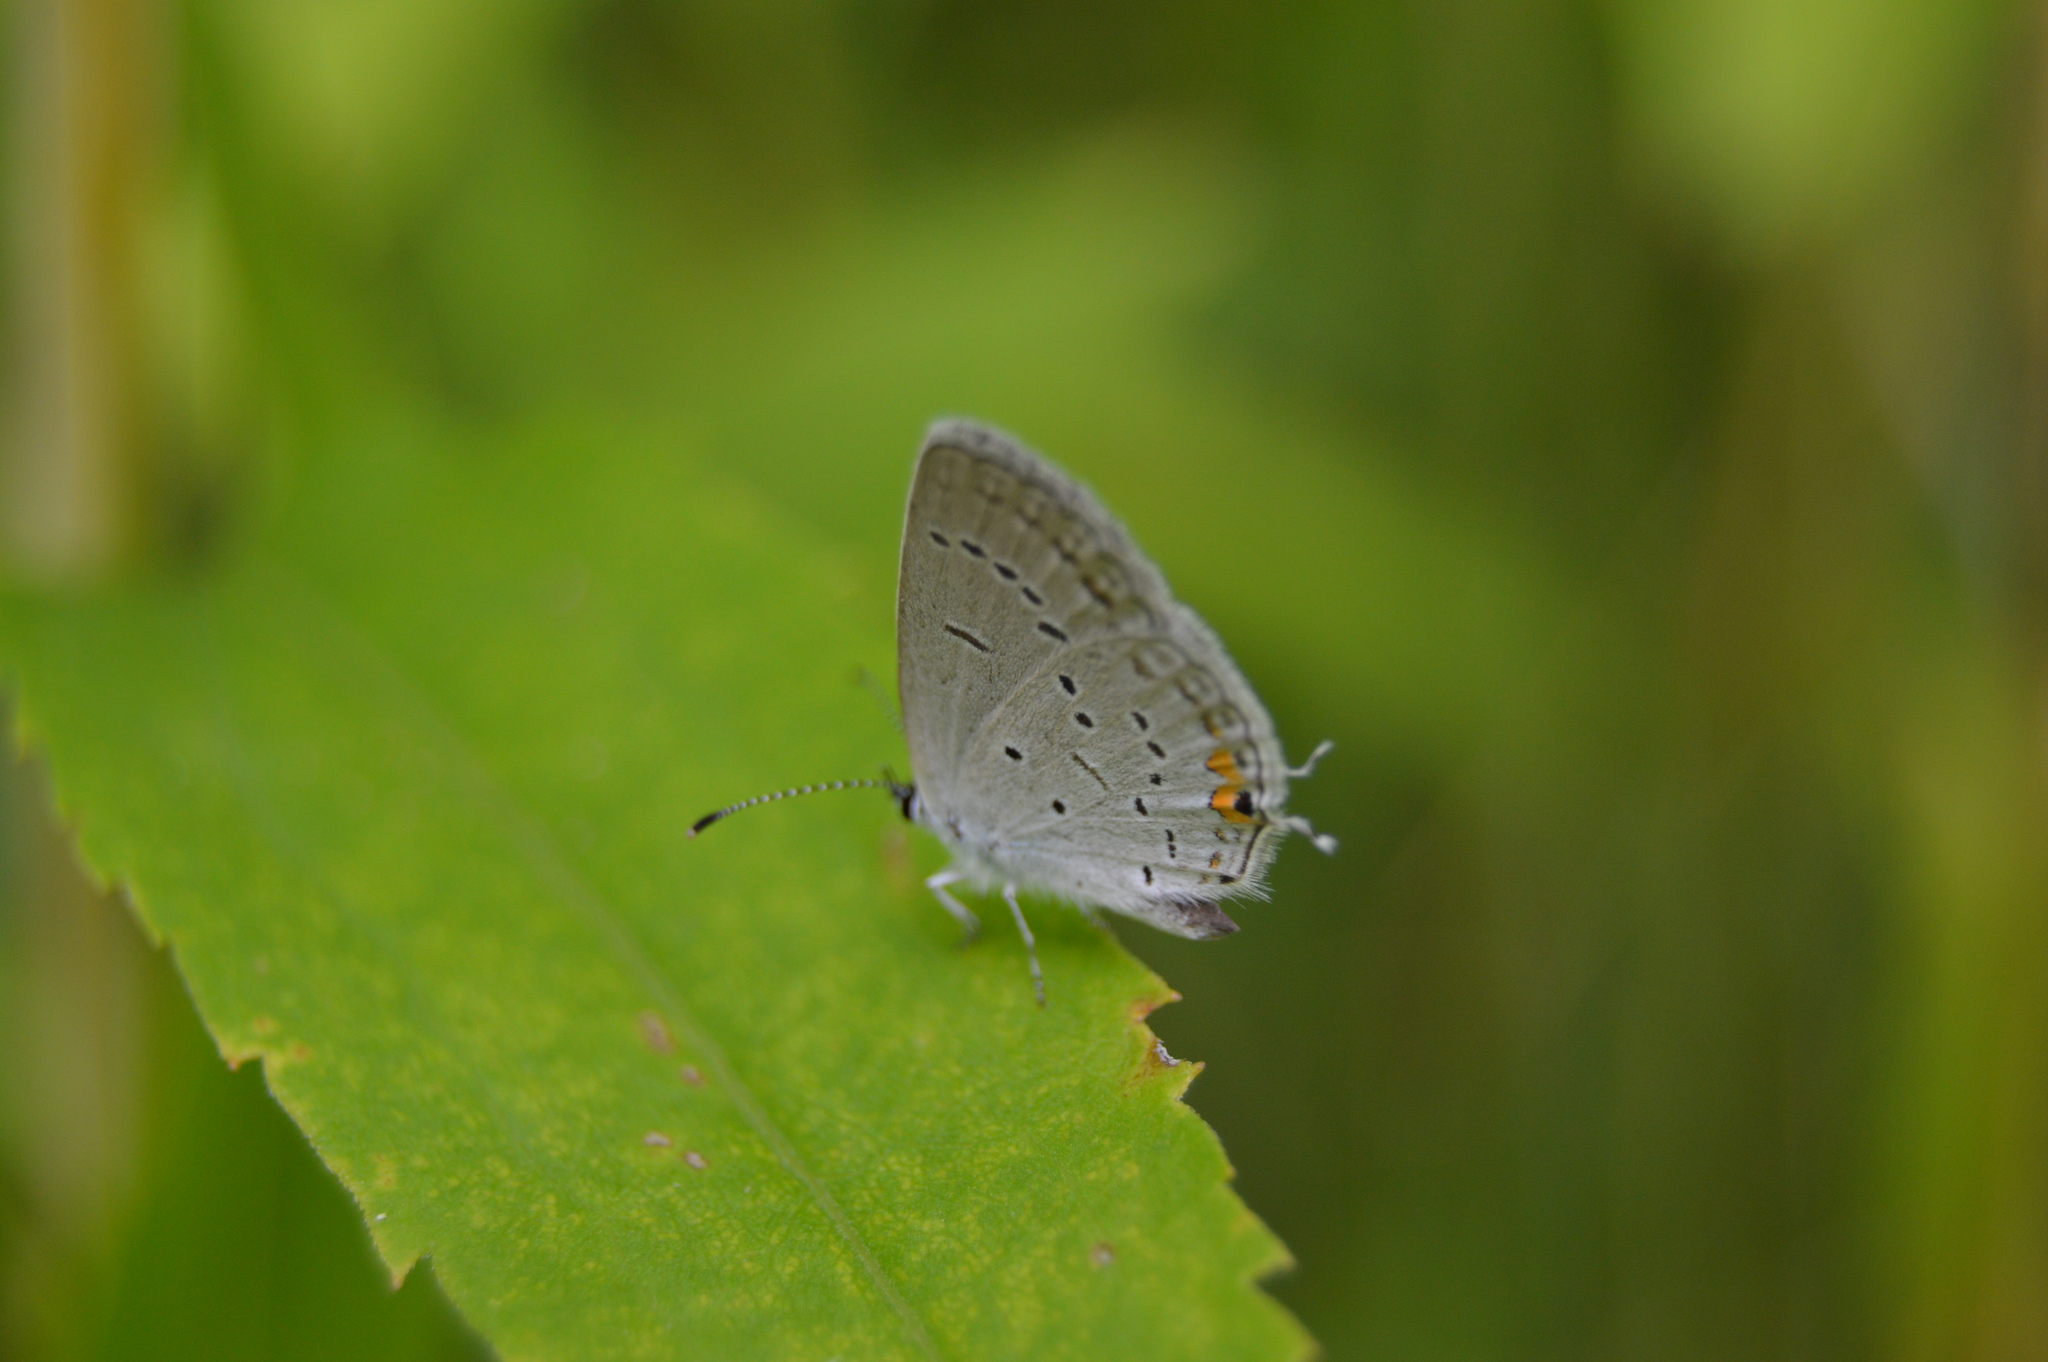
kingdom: Animalia
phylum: Arthropoda
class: Insecta
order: Lepidoptera
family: Lycaenidae
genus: Elkalyce
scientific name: Elkalyce comyntas
